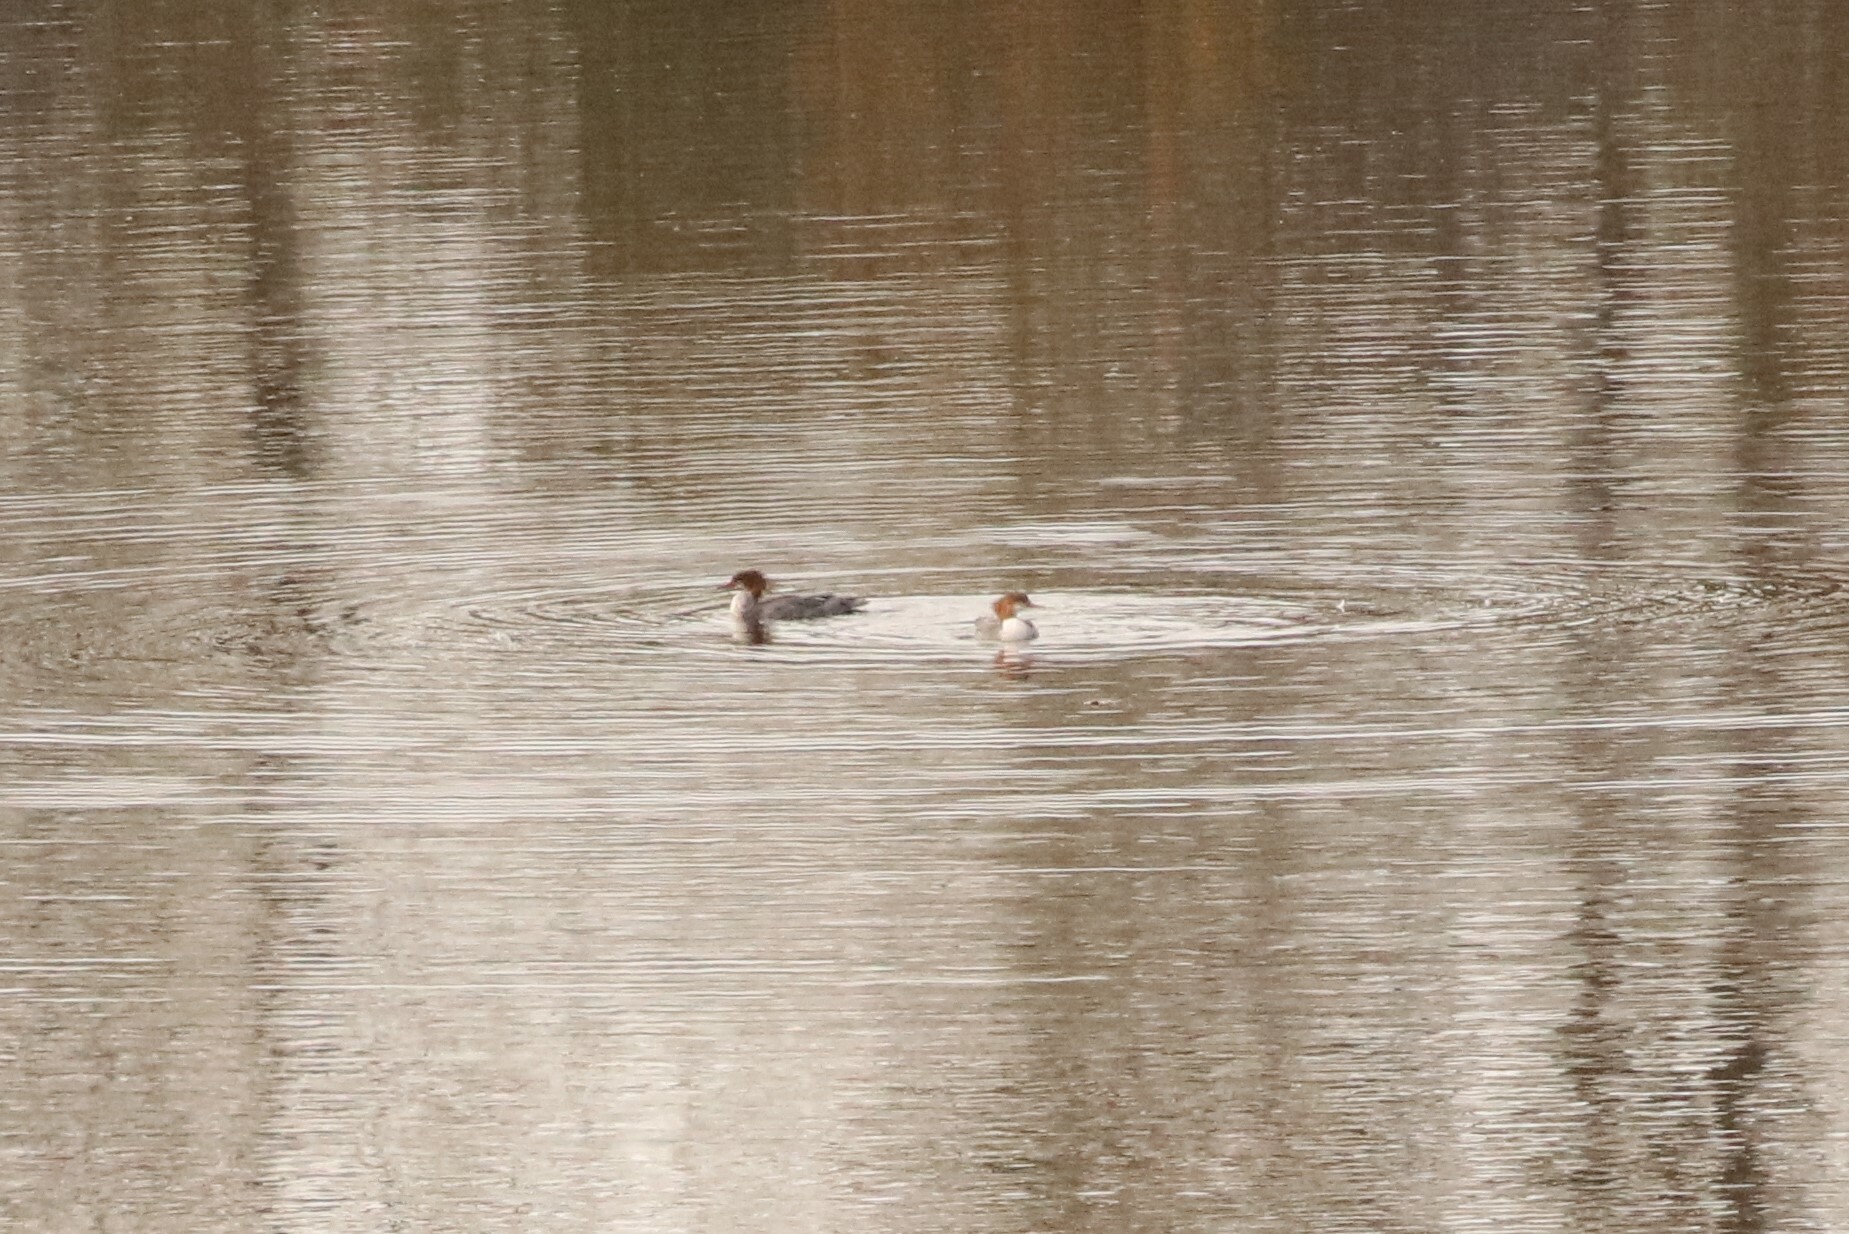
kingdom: Animalia
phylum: Chordata
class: Aves
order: Anseriformes
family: Anatidae
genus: Mergus
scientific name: Mergus merganser
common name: Common merganser
